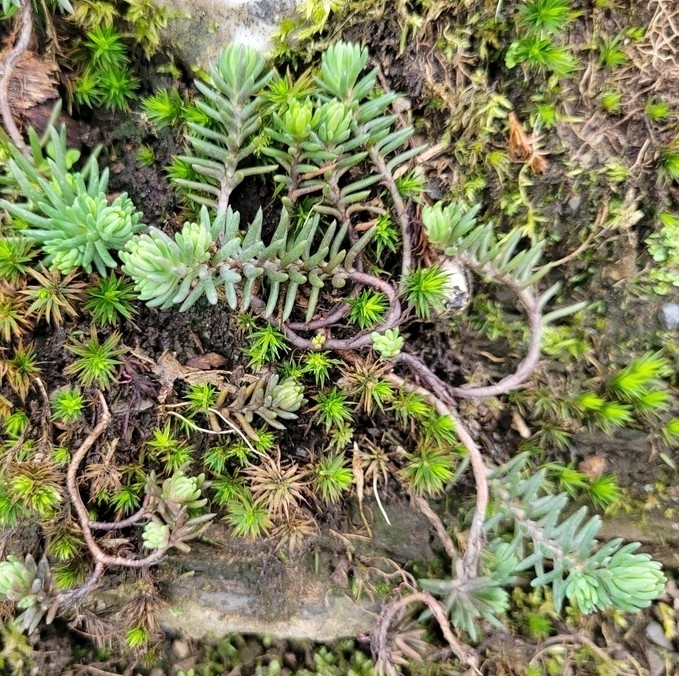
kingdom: Plantae
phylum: Tracheophyta
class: Magnoliopsida
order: Saxifragales
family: Crassulaceae
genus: Petrosedum
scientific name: Petrosedum rupestre
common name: Jenny's stonecrop
